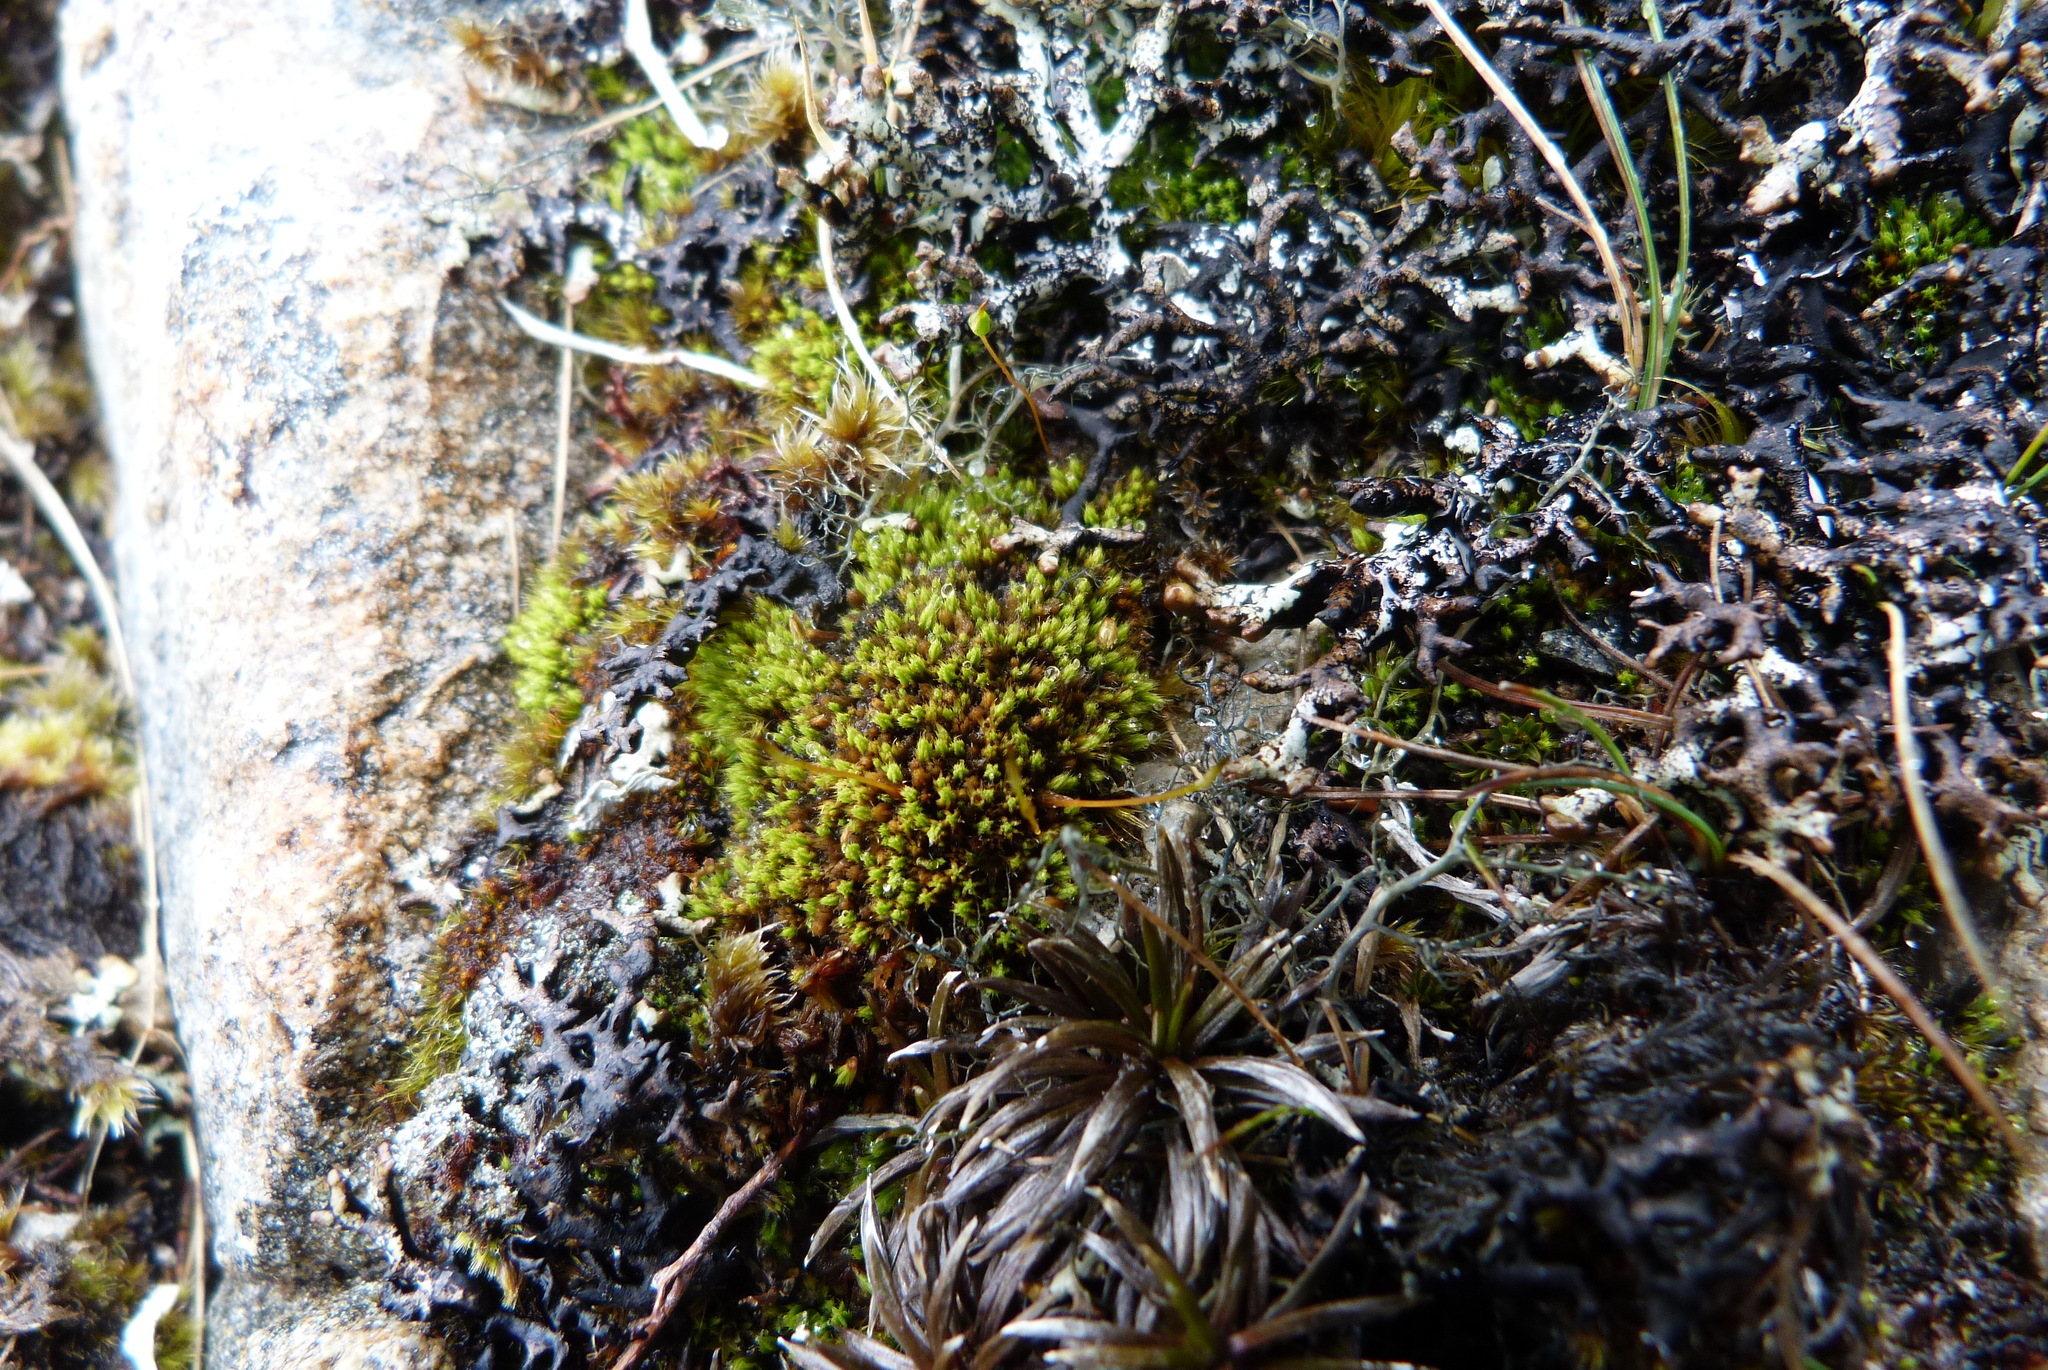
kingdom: Plantae
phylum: Bryophyta
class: Bryopsida
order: Bartramiales
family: Bartramiaceae
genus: Conostomum
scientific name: Conostomum pentastichum
